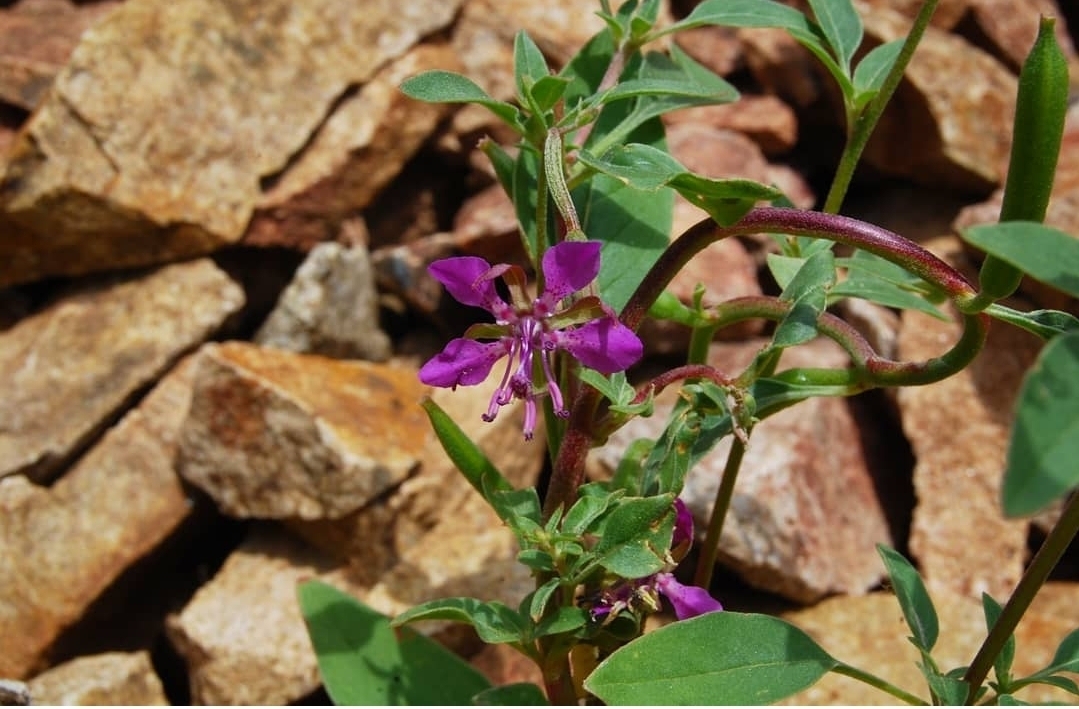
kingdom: Plantae
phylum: Tracheophyta
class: Magnoliopsida
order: Myrtales
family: Onagraceae
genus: Clarkia
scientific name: Clarkia rhomboidea
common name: Broadleaf clarkia
